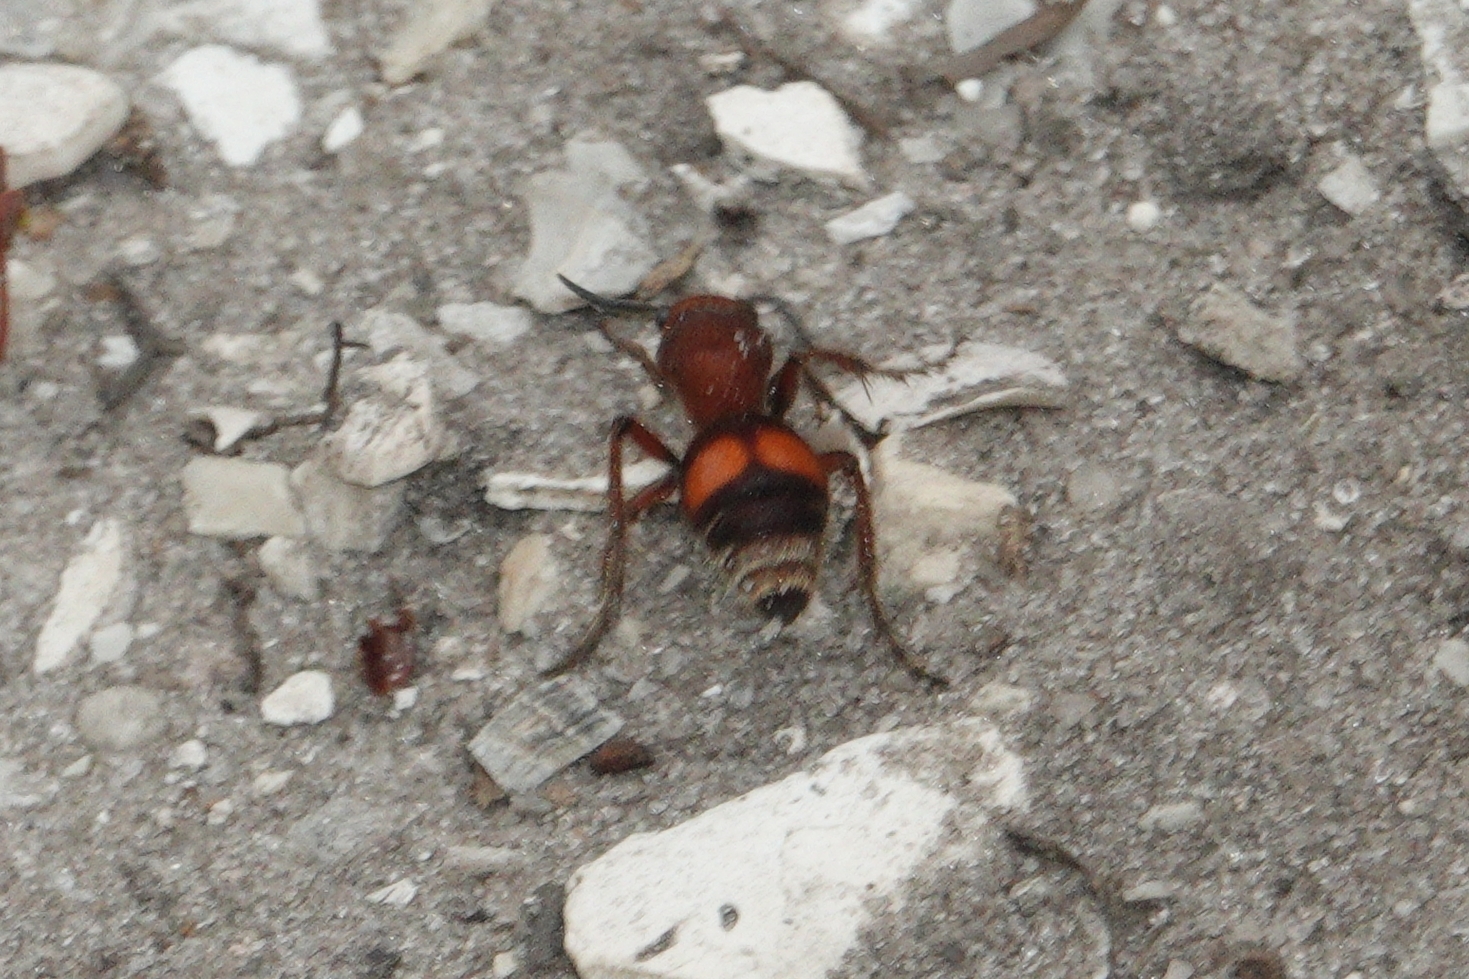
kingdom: Animalia
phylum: Arthropoda
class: Insecta
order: Hymenoptera
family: Mutillidae
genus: Dasymutilla
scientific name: Dasymutilla
